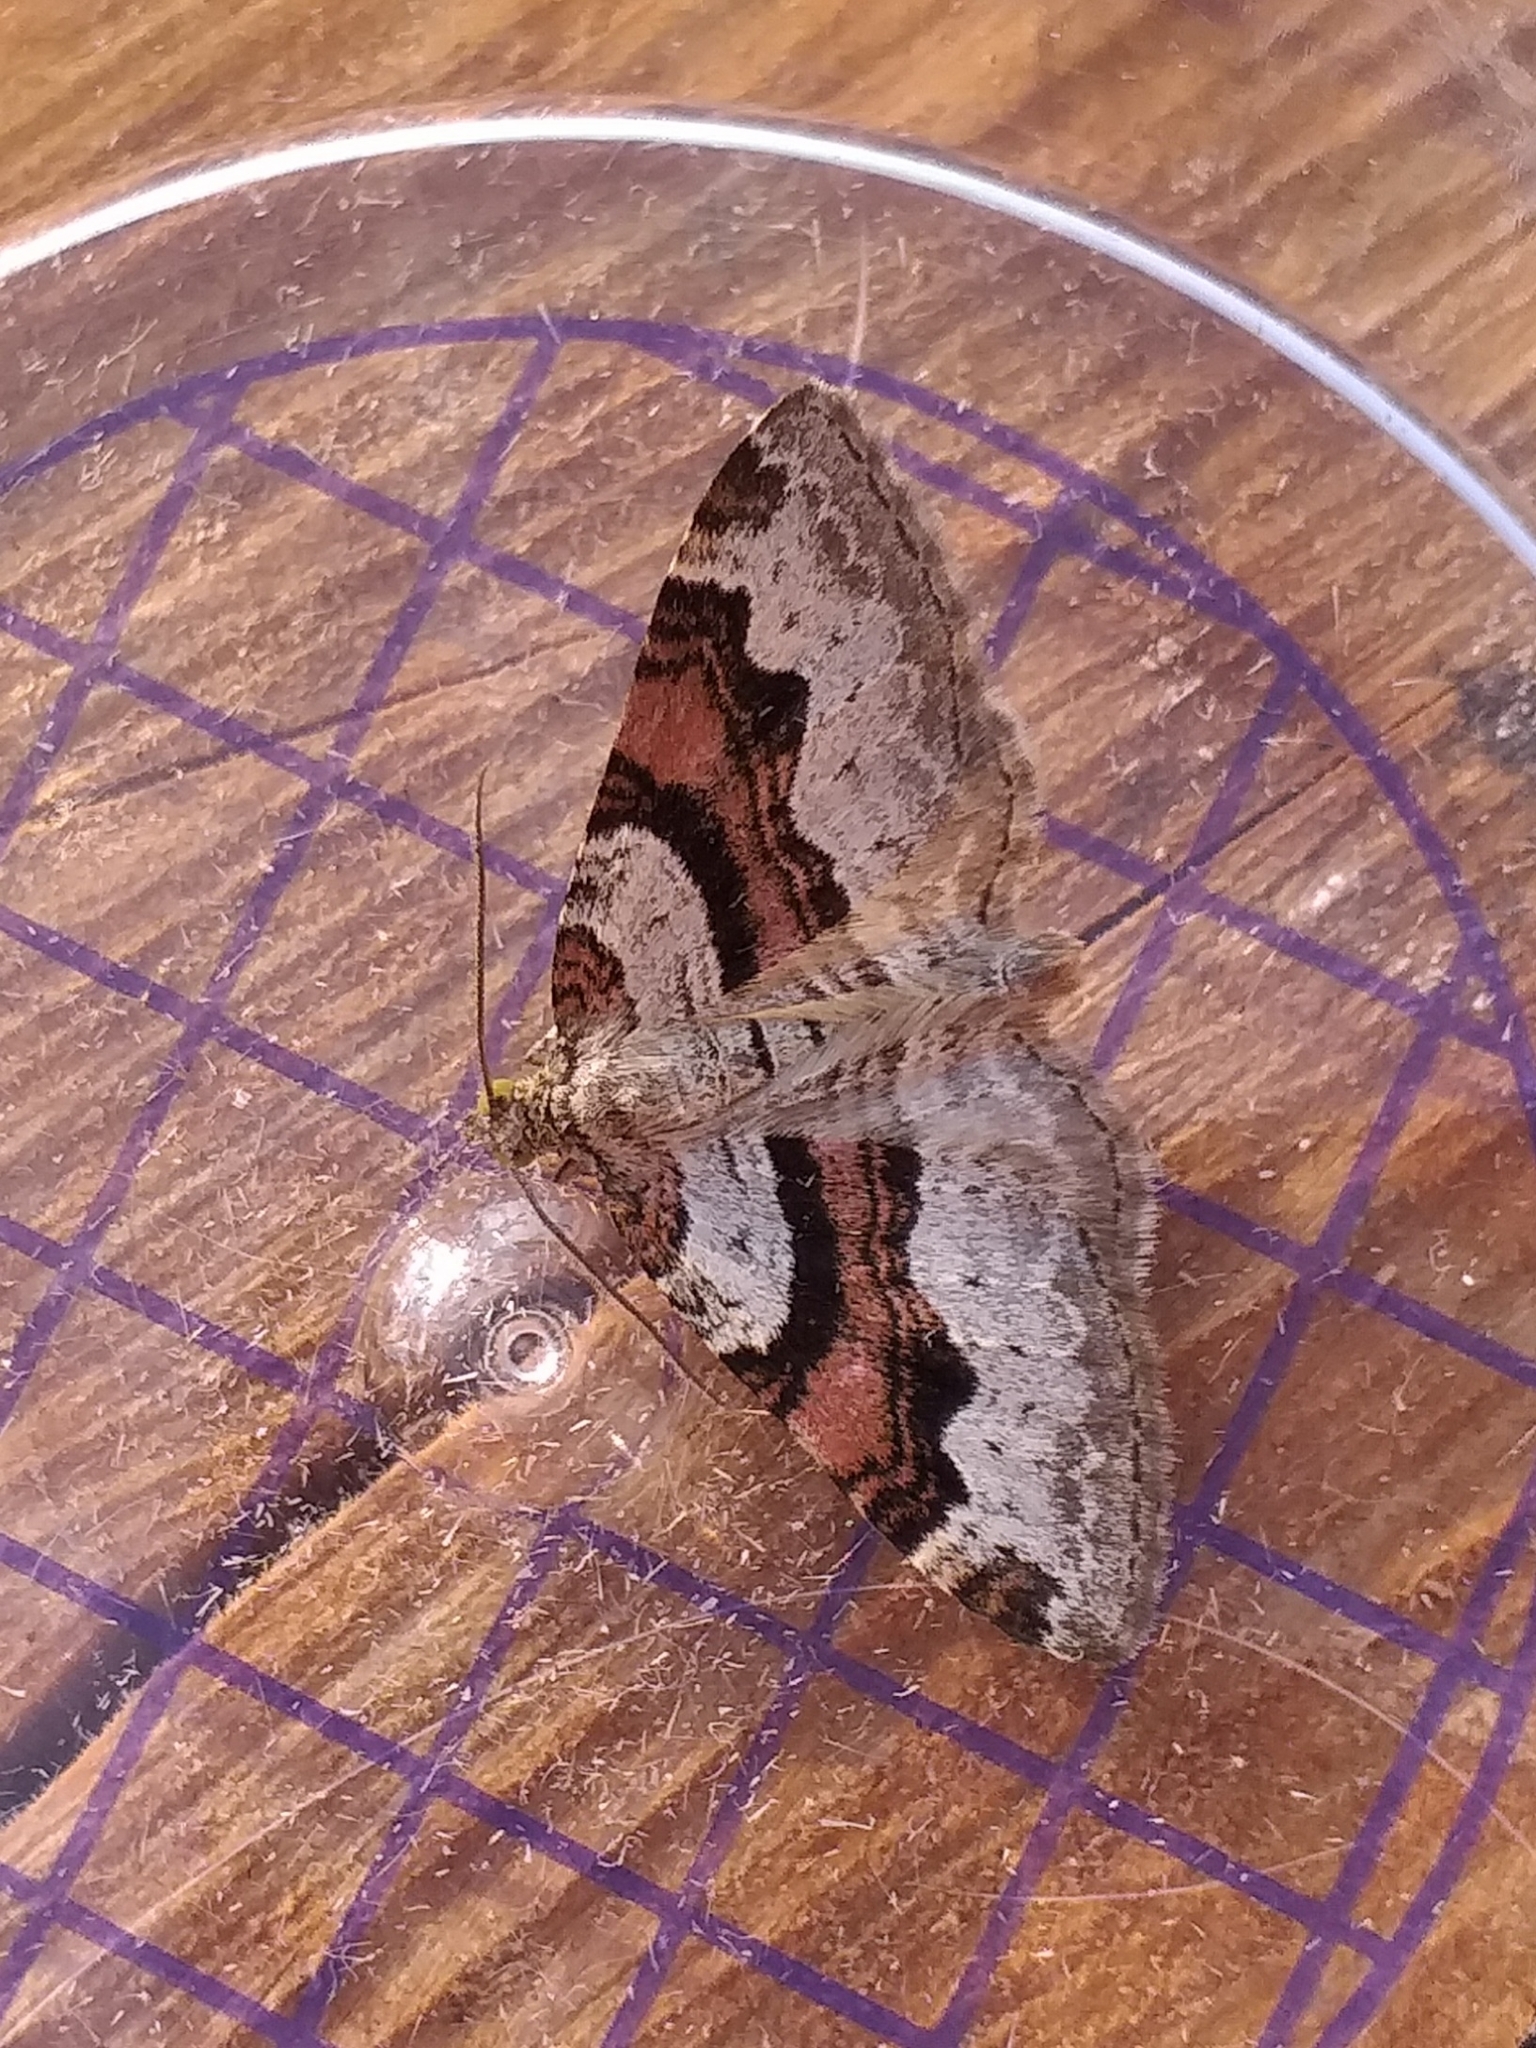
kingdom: Animalia
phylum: Arthropoda
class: Insecta
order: Lepidoptera
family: Geometridae
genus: Xanthorhoe
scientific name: Xanthorhoe designata
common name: Flame carpet
